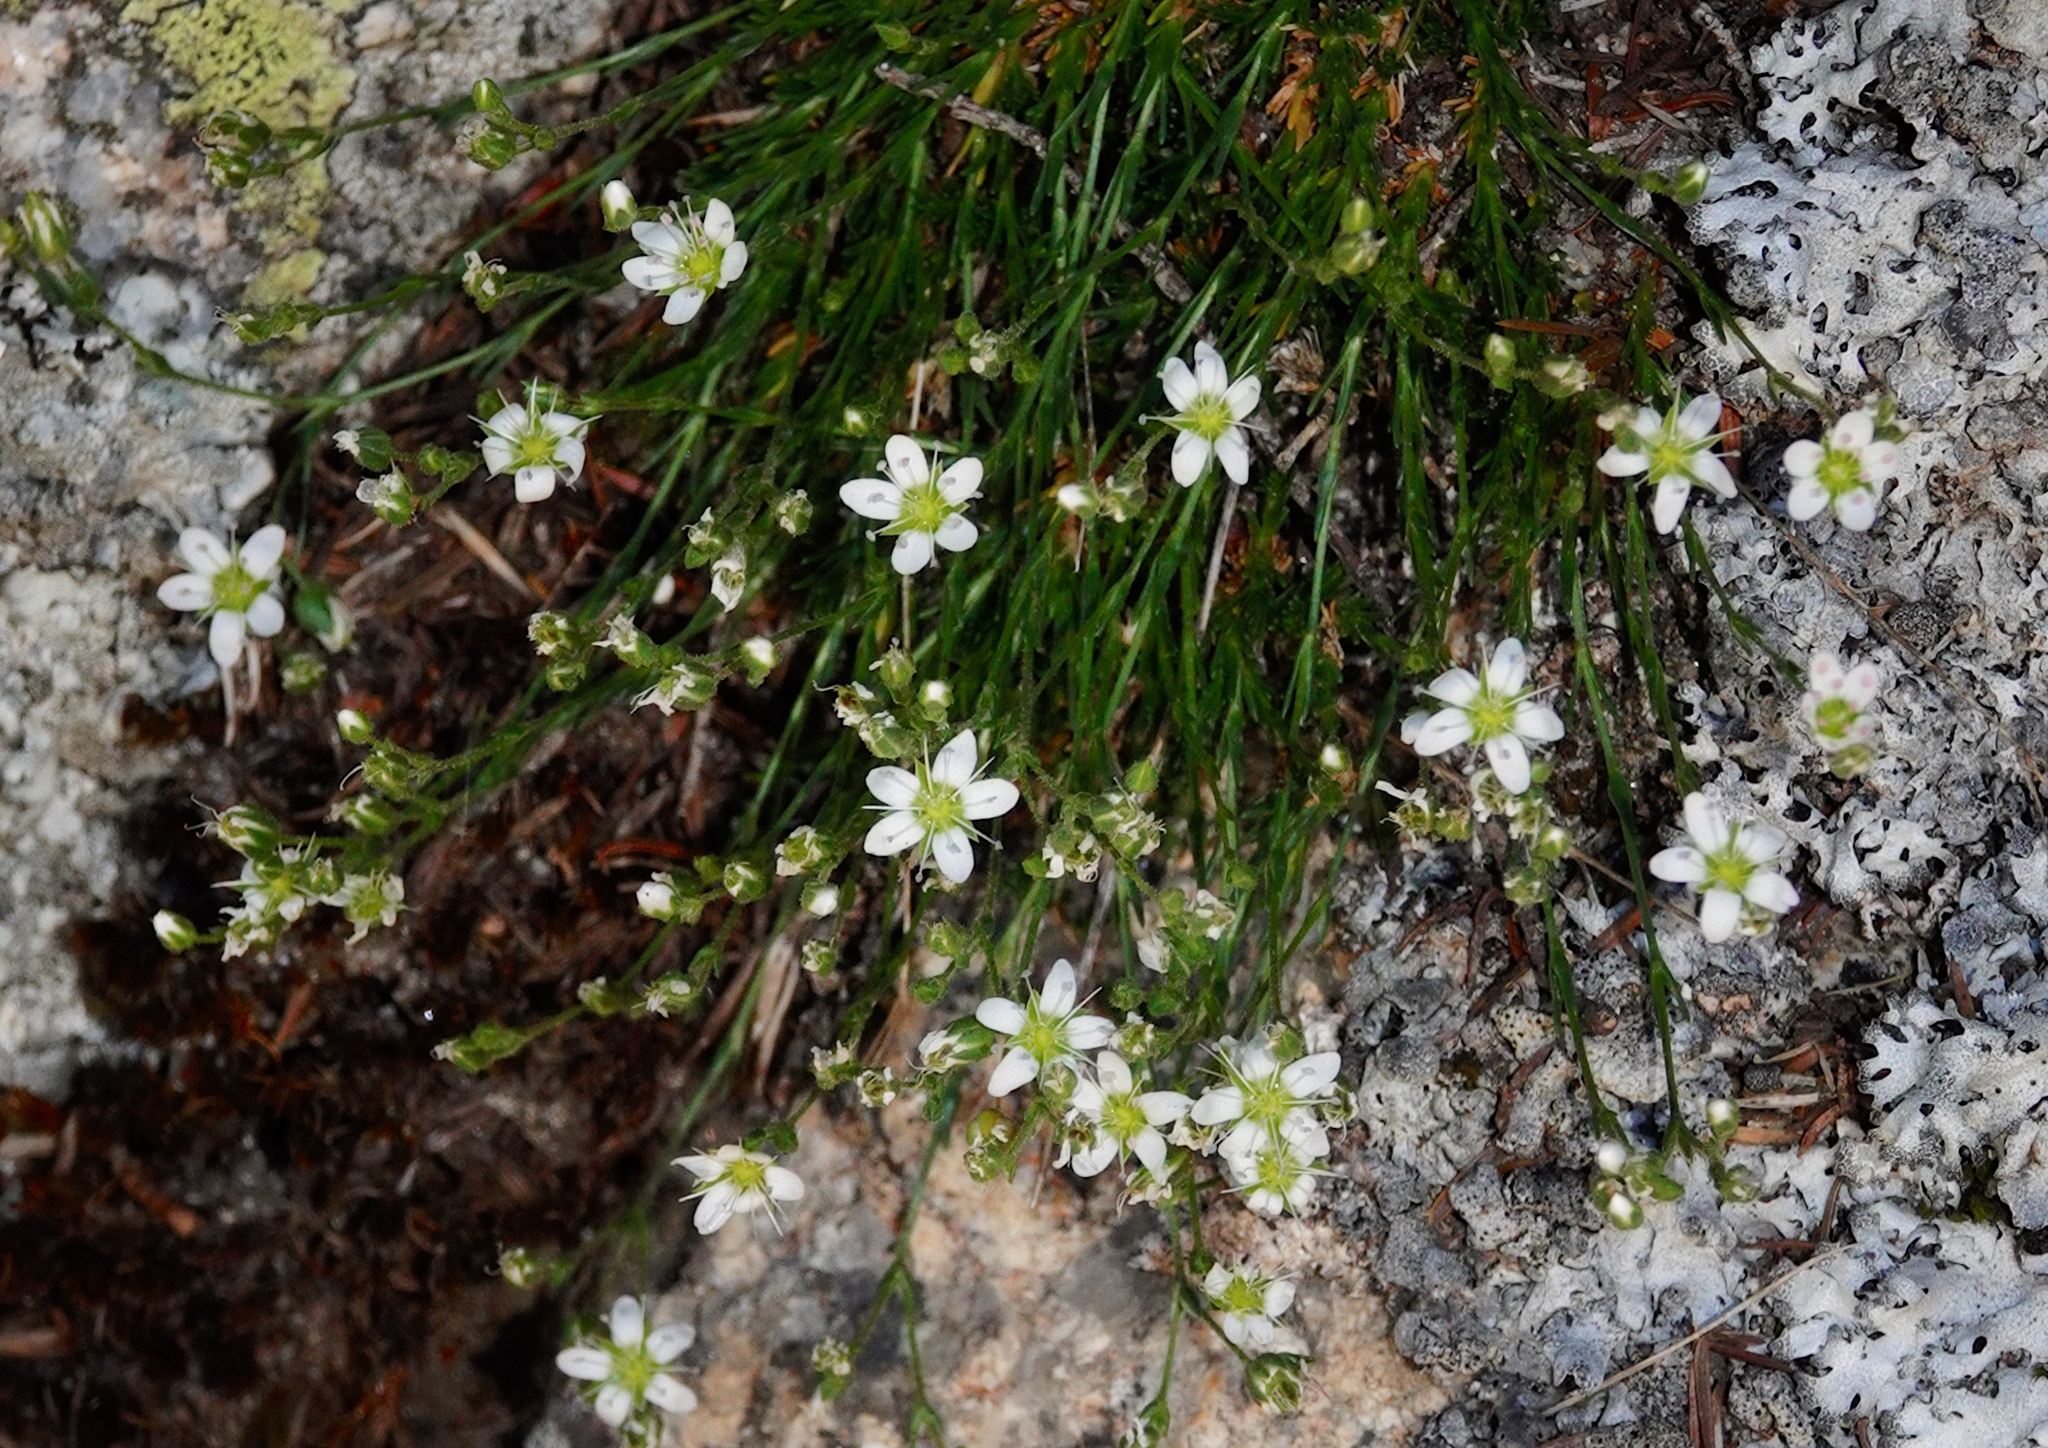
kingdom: Plantae
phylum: Tracheophyta
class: Magnoliopsida
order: Caryophyllales
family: Caryophyllaceae
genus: Minuartia
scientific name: Minuartia recurva
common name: Recurved sandwort
